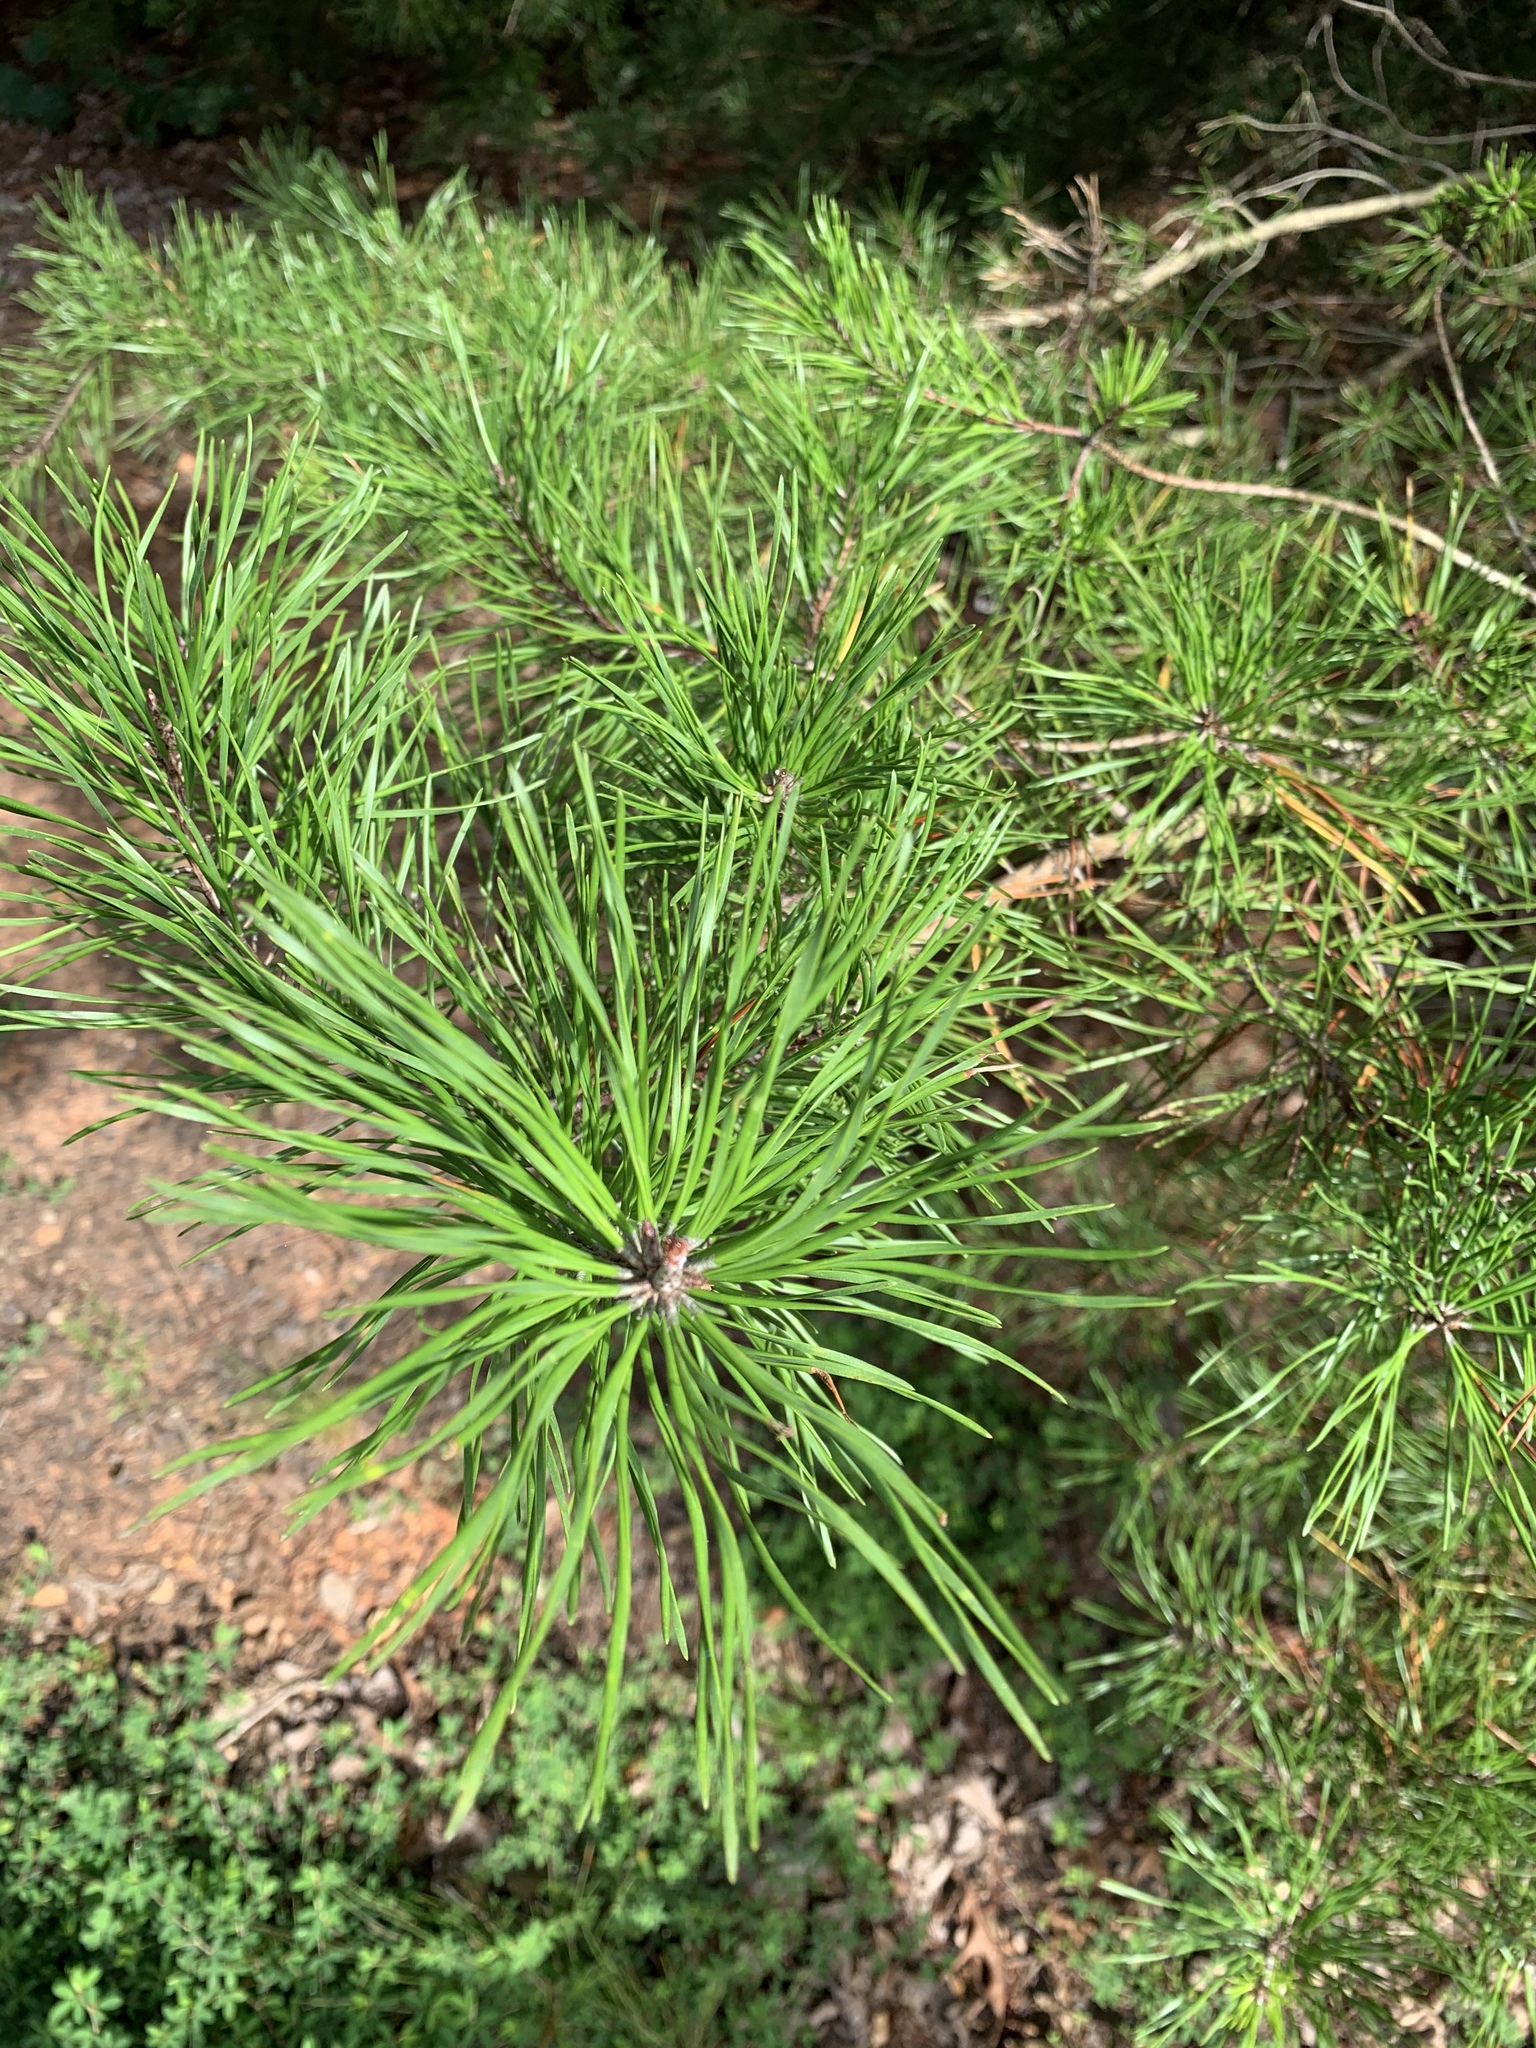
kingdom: Plantae
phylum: Tracheophyta
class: Pinopsida
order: Pinales
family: Pinaceae
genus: Pinus
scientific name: Pinus rigida
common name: Pitch pine
